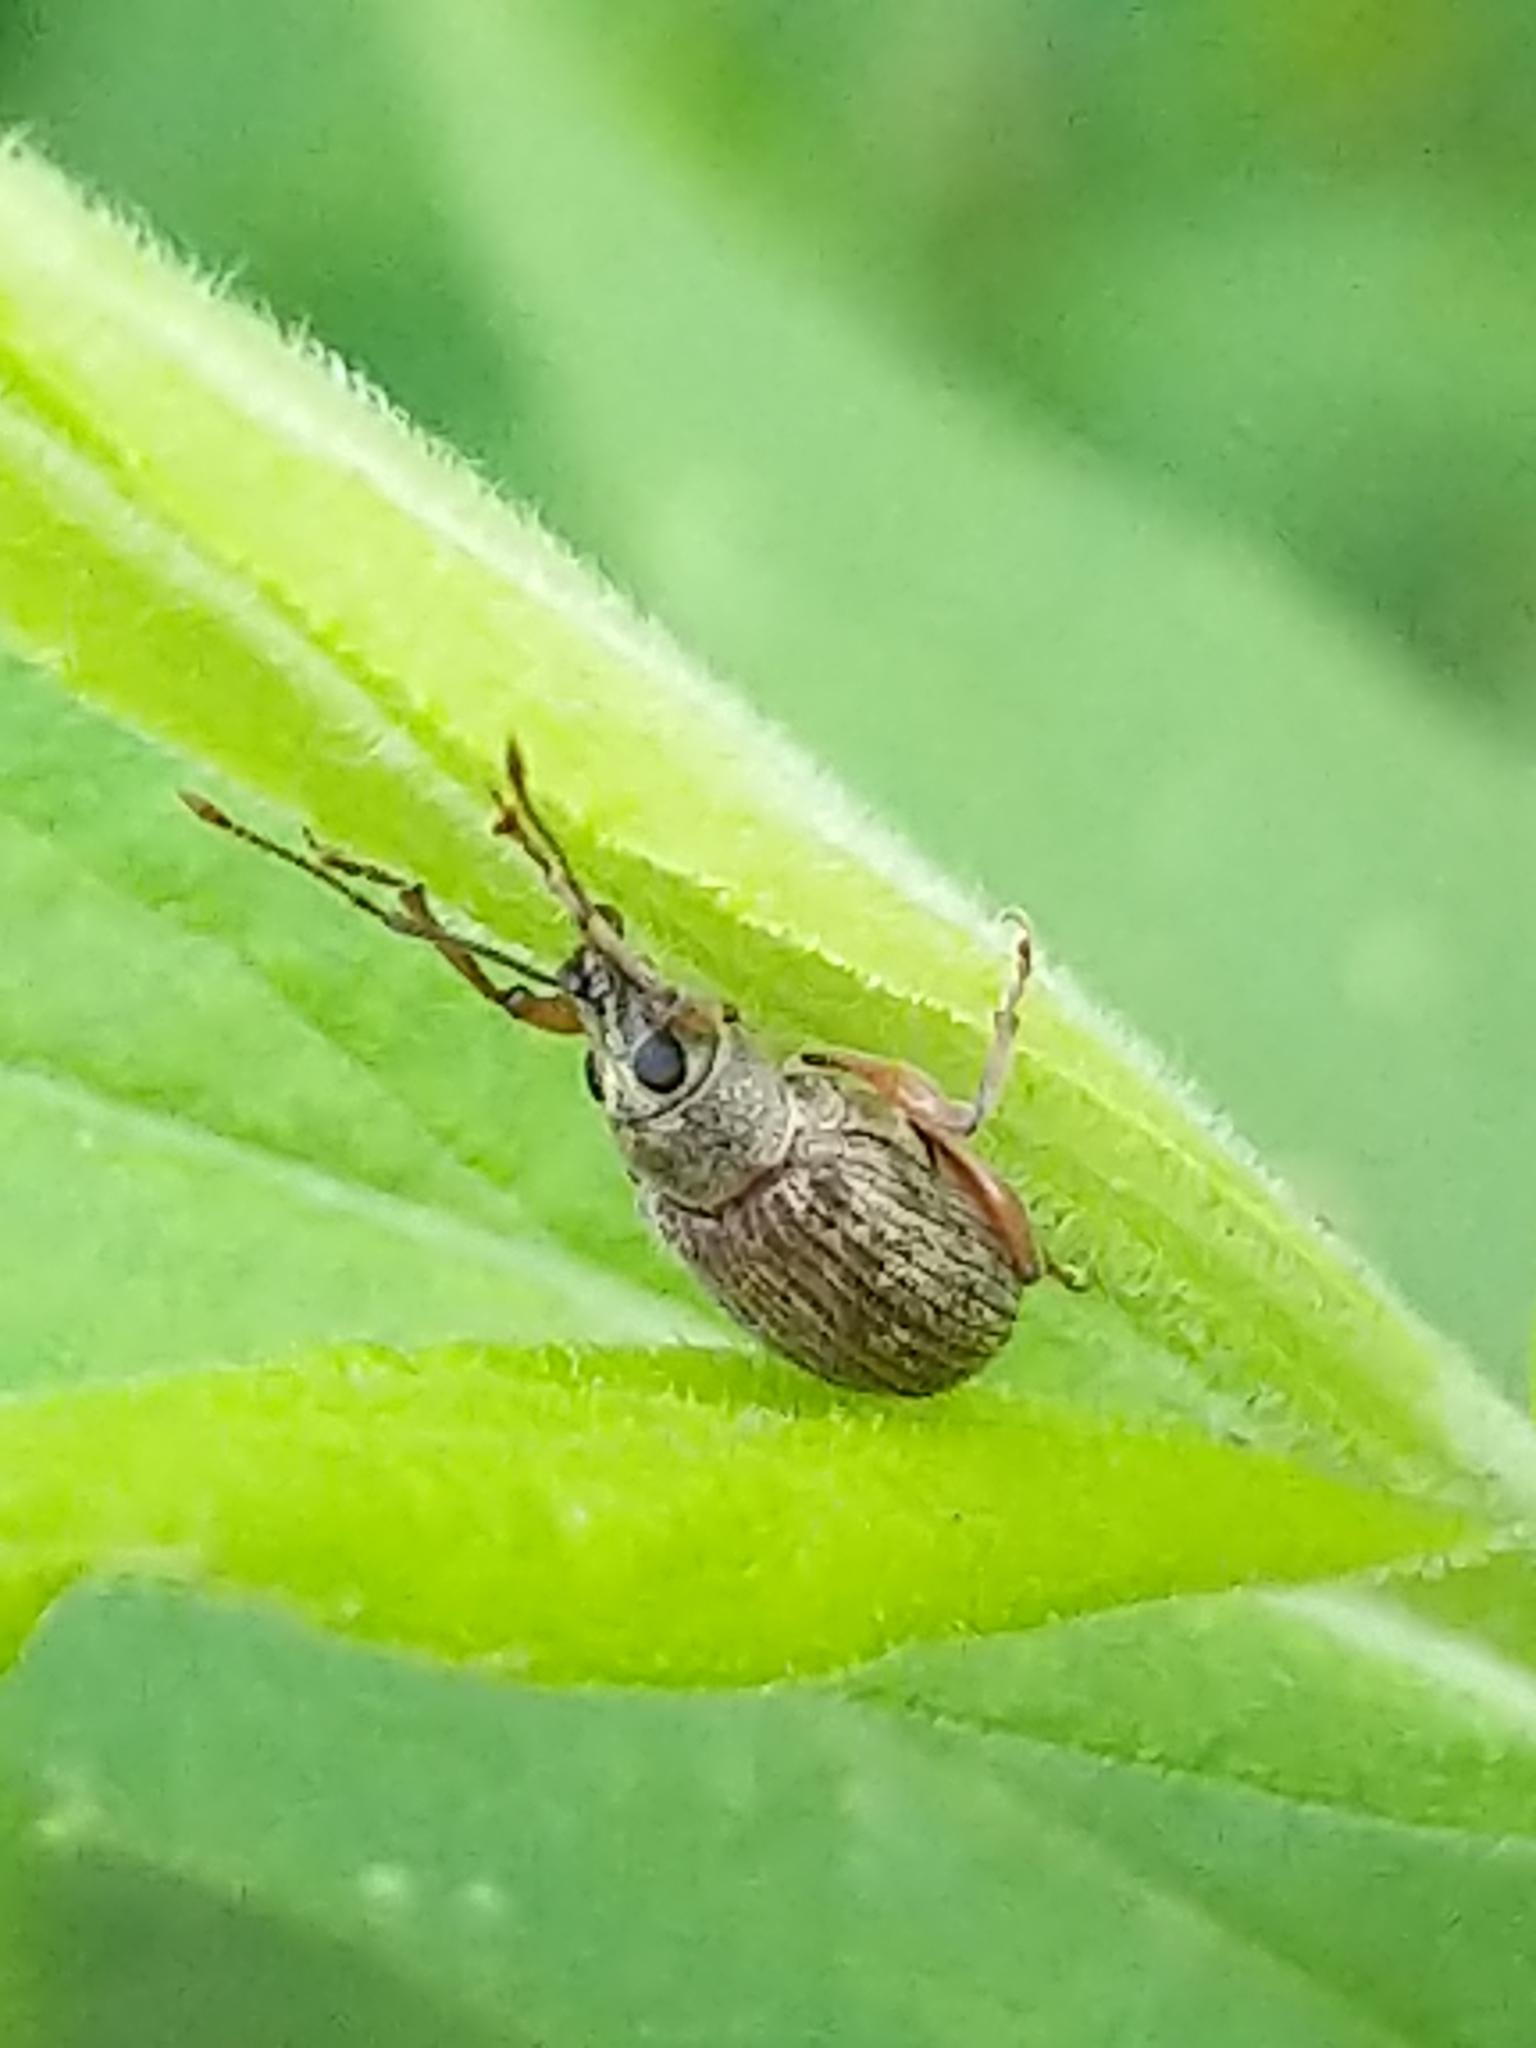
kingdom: Animalia
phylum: Arthropoda
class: Insecta
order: Coleoptera
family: Curculionidae
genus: Cyrtepistomus
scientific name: Cyrtepistomus castaneus
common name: Weevil
